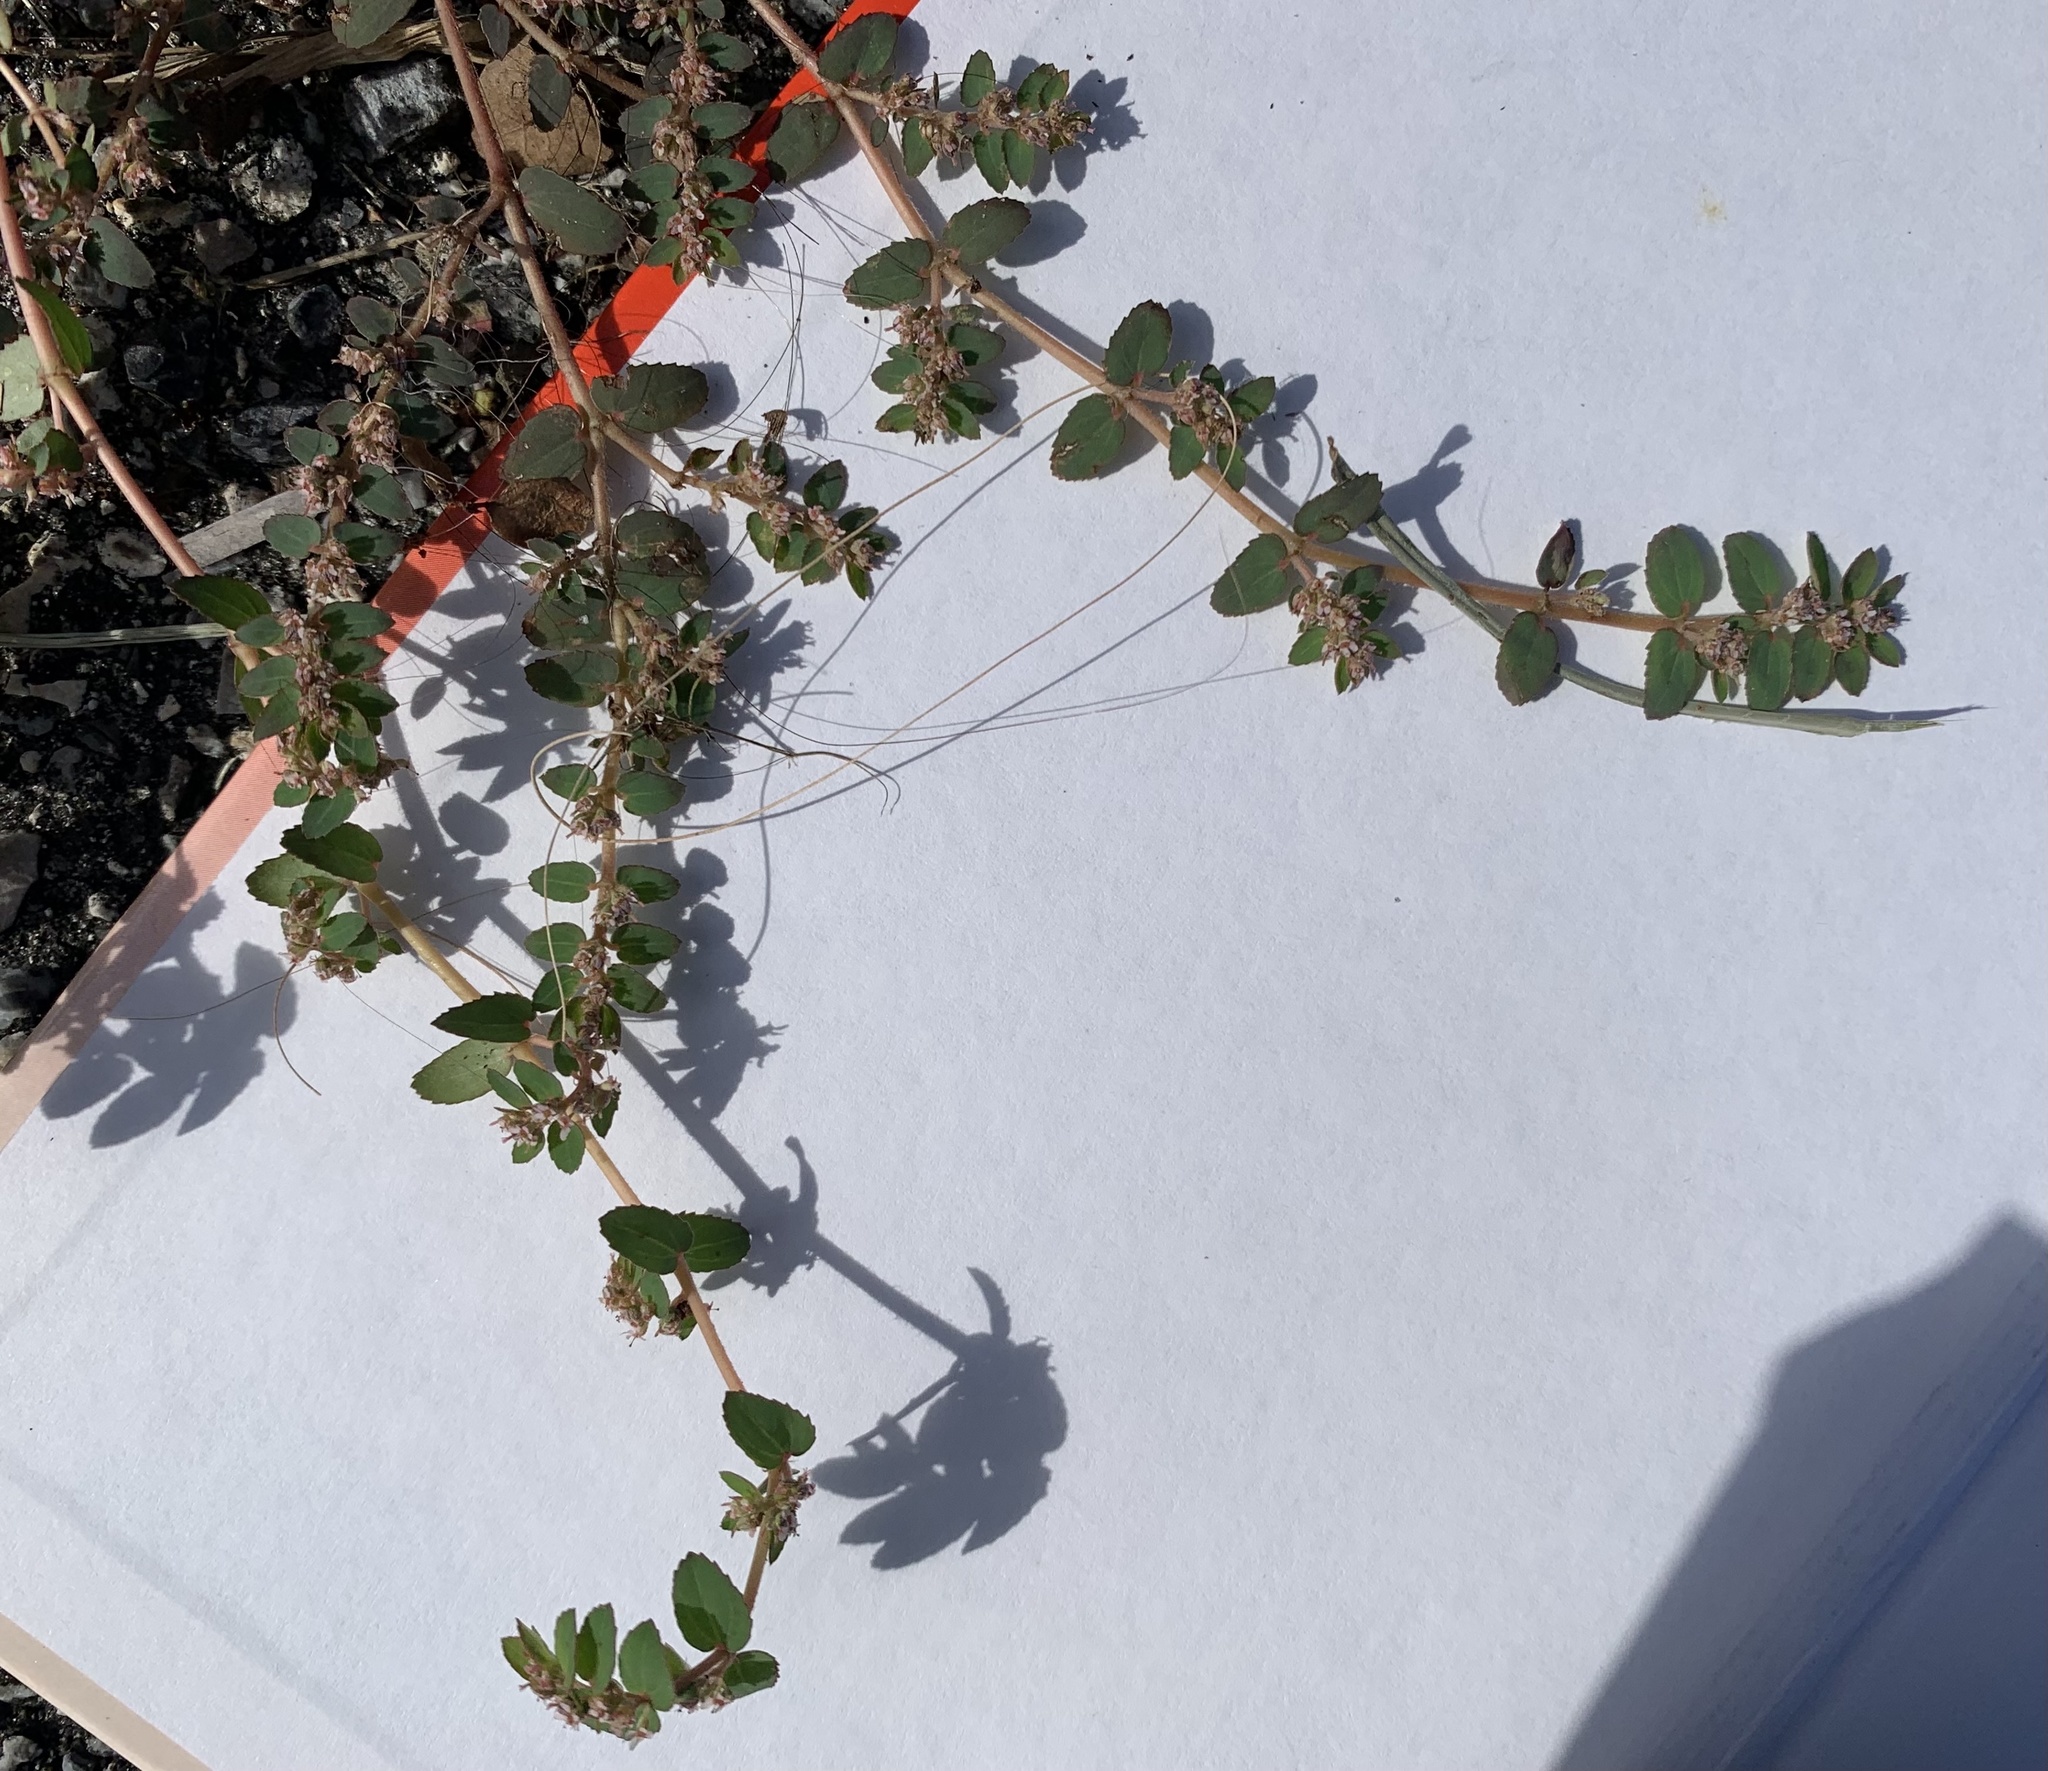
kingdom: Plantae
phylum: Tracheophyta
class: Magnoliopsida
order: Malpighiales
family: Euphorbiaceae
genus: Euphorbia
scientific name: Euphorbia thymifolia
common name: Gulf sandmat
